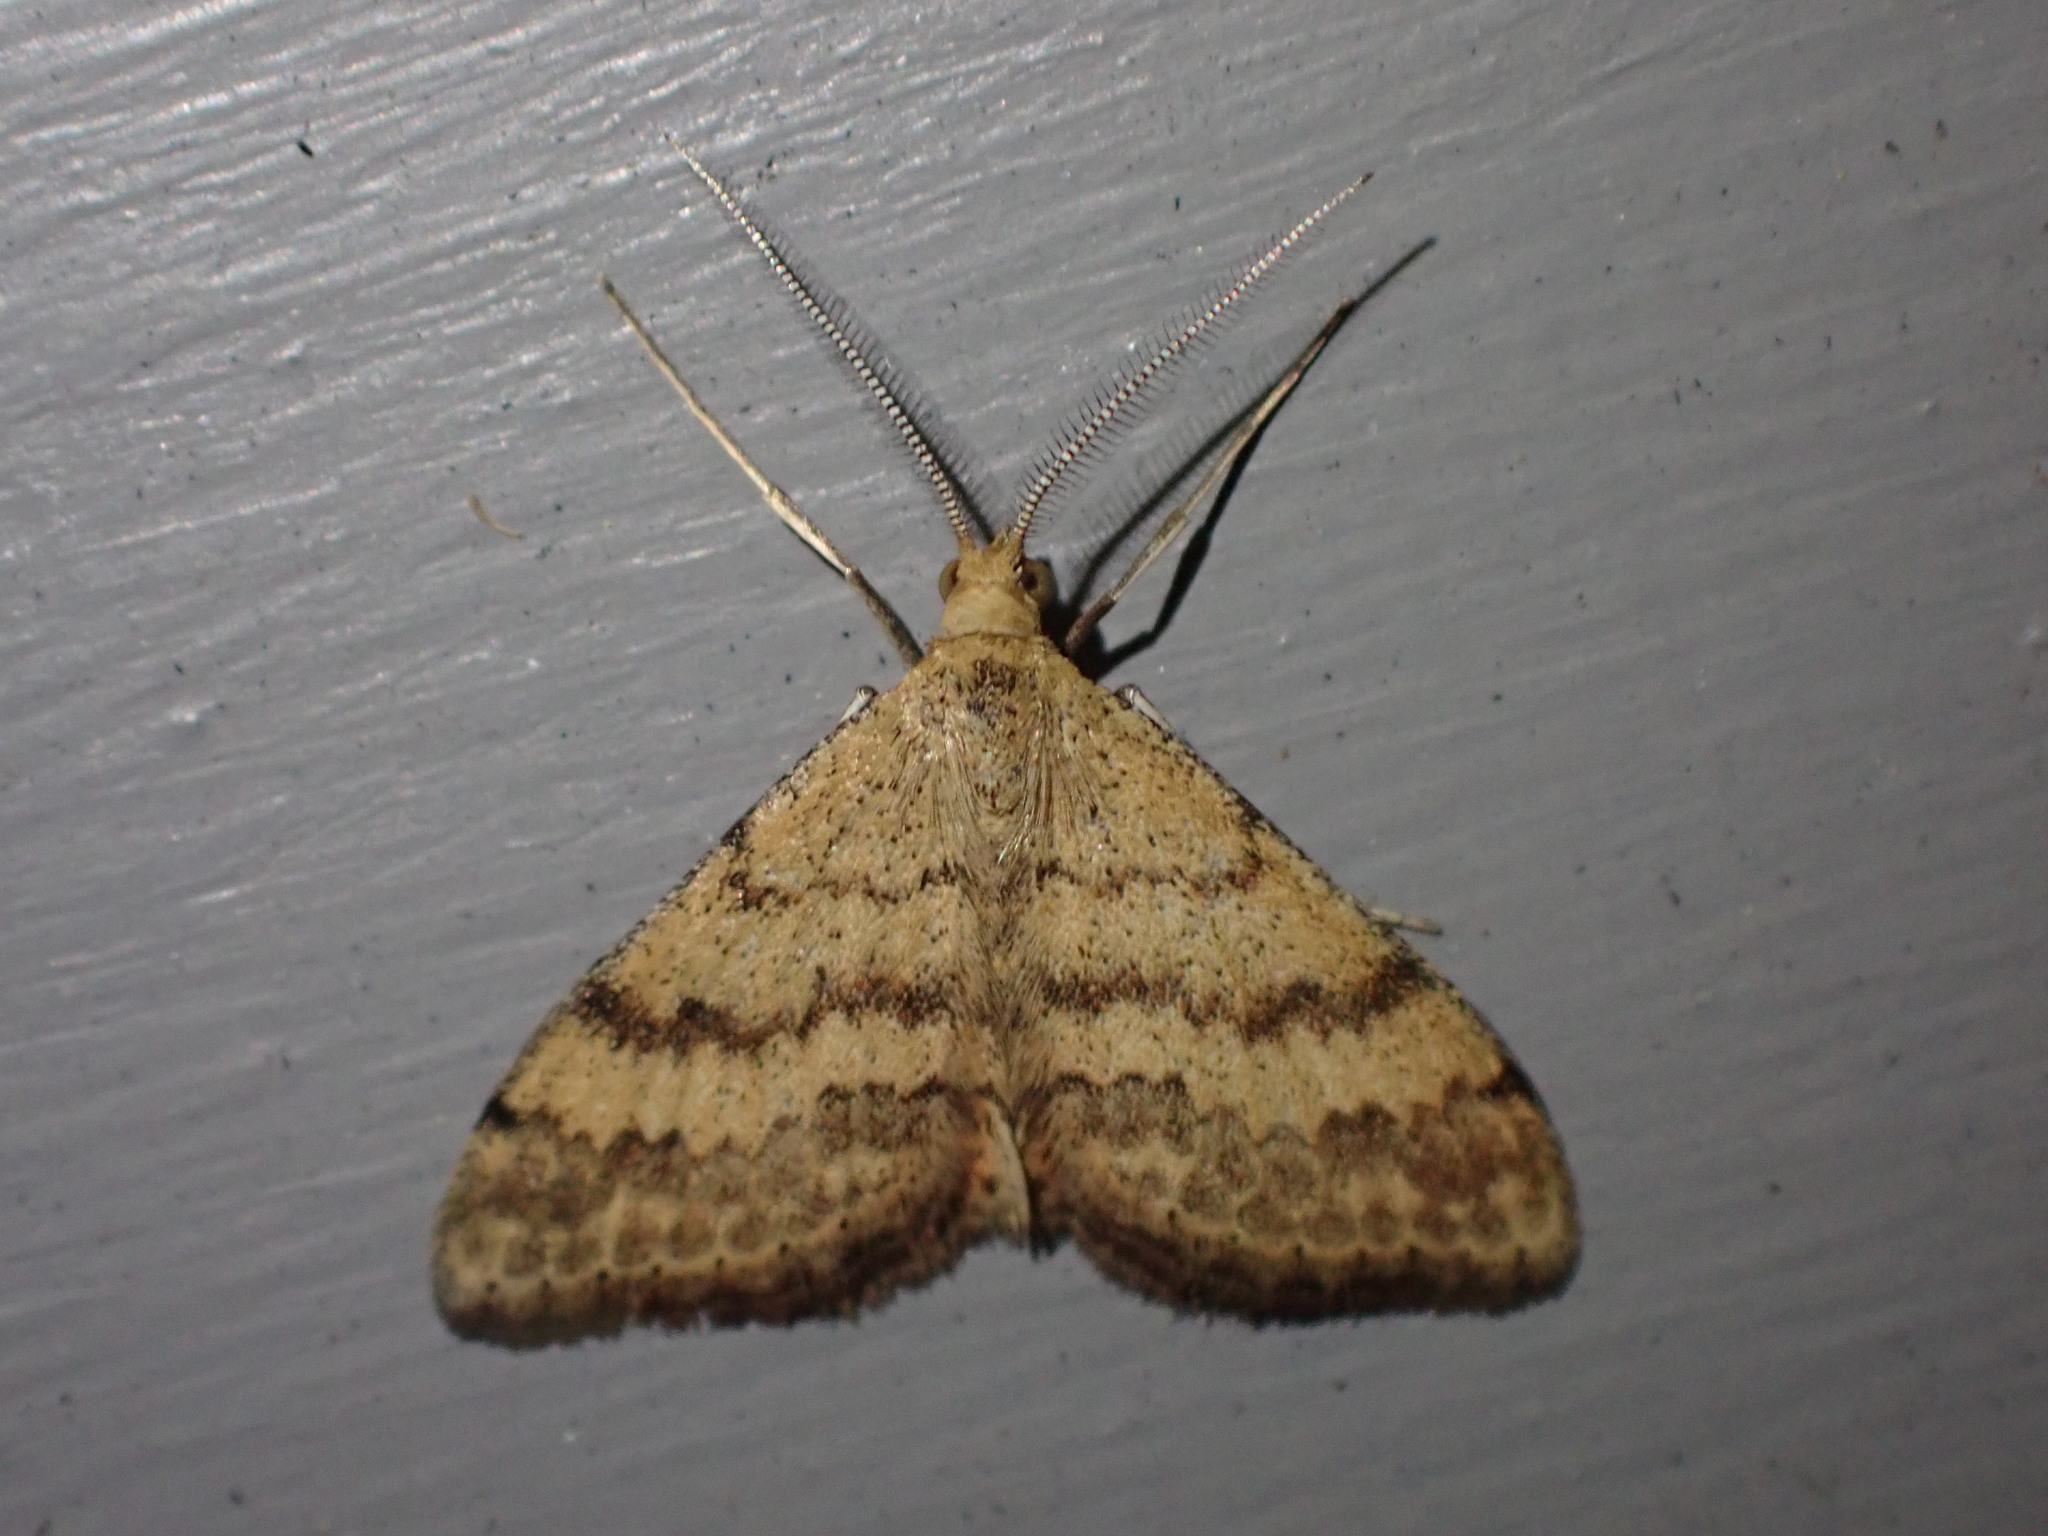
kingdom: Animalia
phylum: Arthropoda
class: Insecta
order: Lepidoptera
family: Geometridae
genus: Scopula
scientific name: Scopula rubraria
